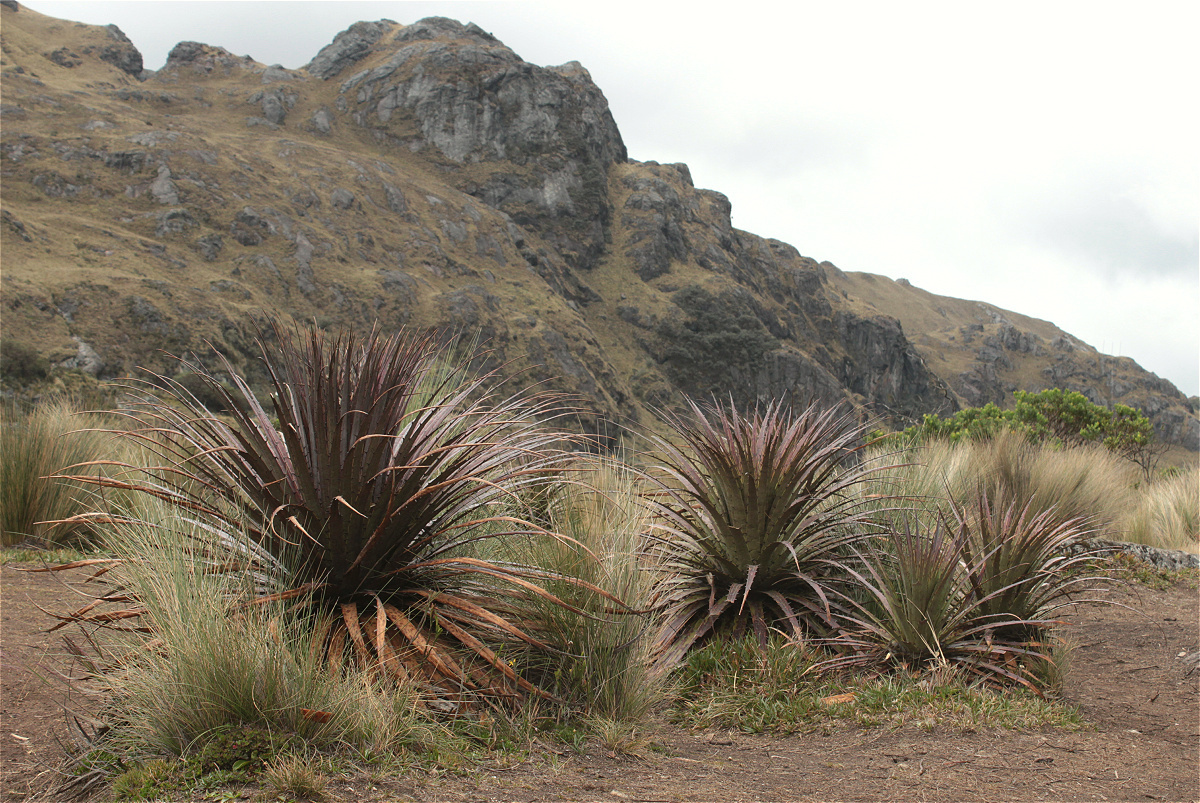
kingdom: Plantae
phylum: Tracheophyta
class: Liliopsida
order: Poales
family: Bromeliaceae
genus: Puya
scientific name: Puya clava-herculis
